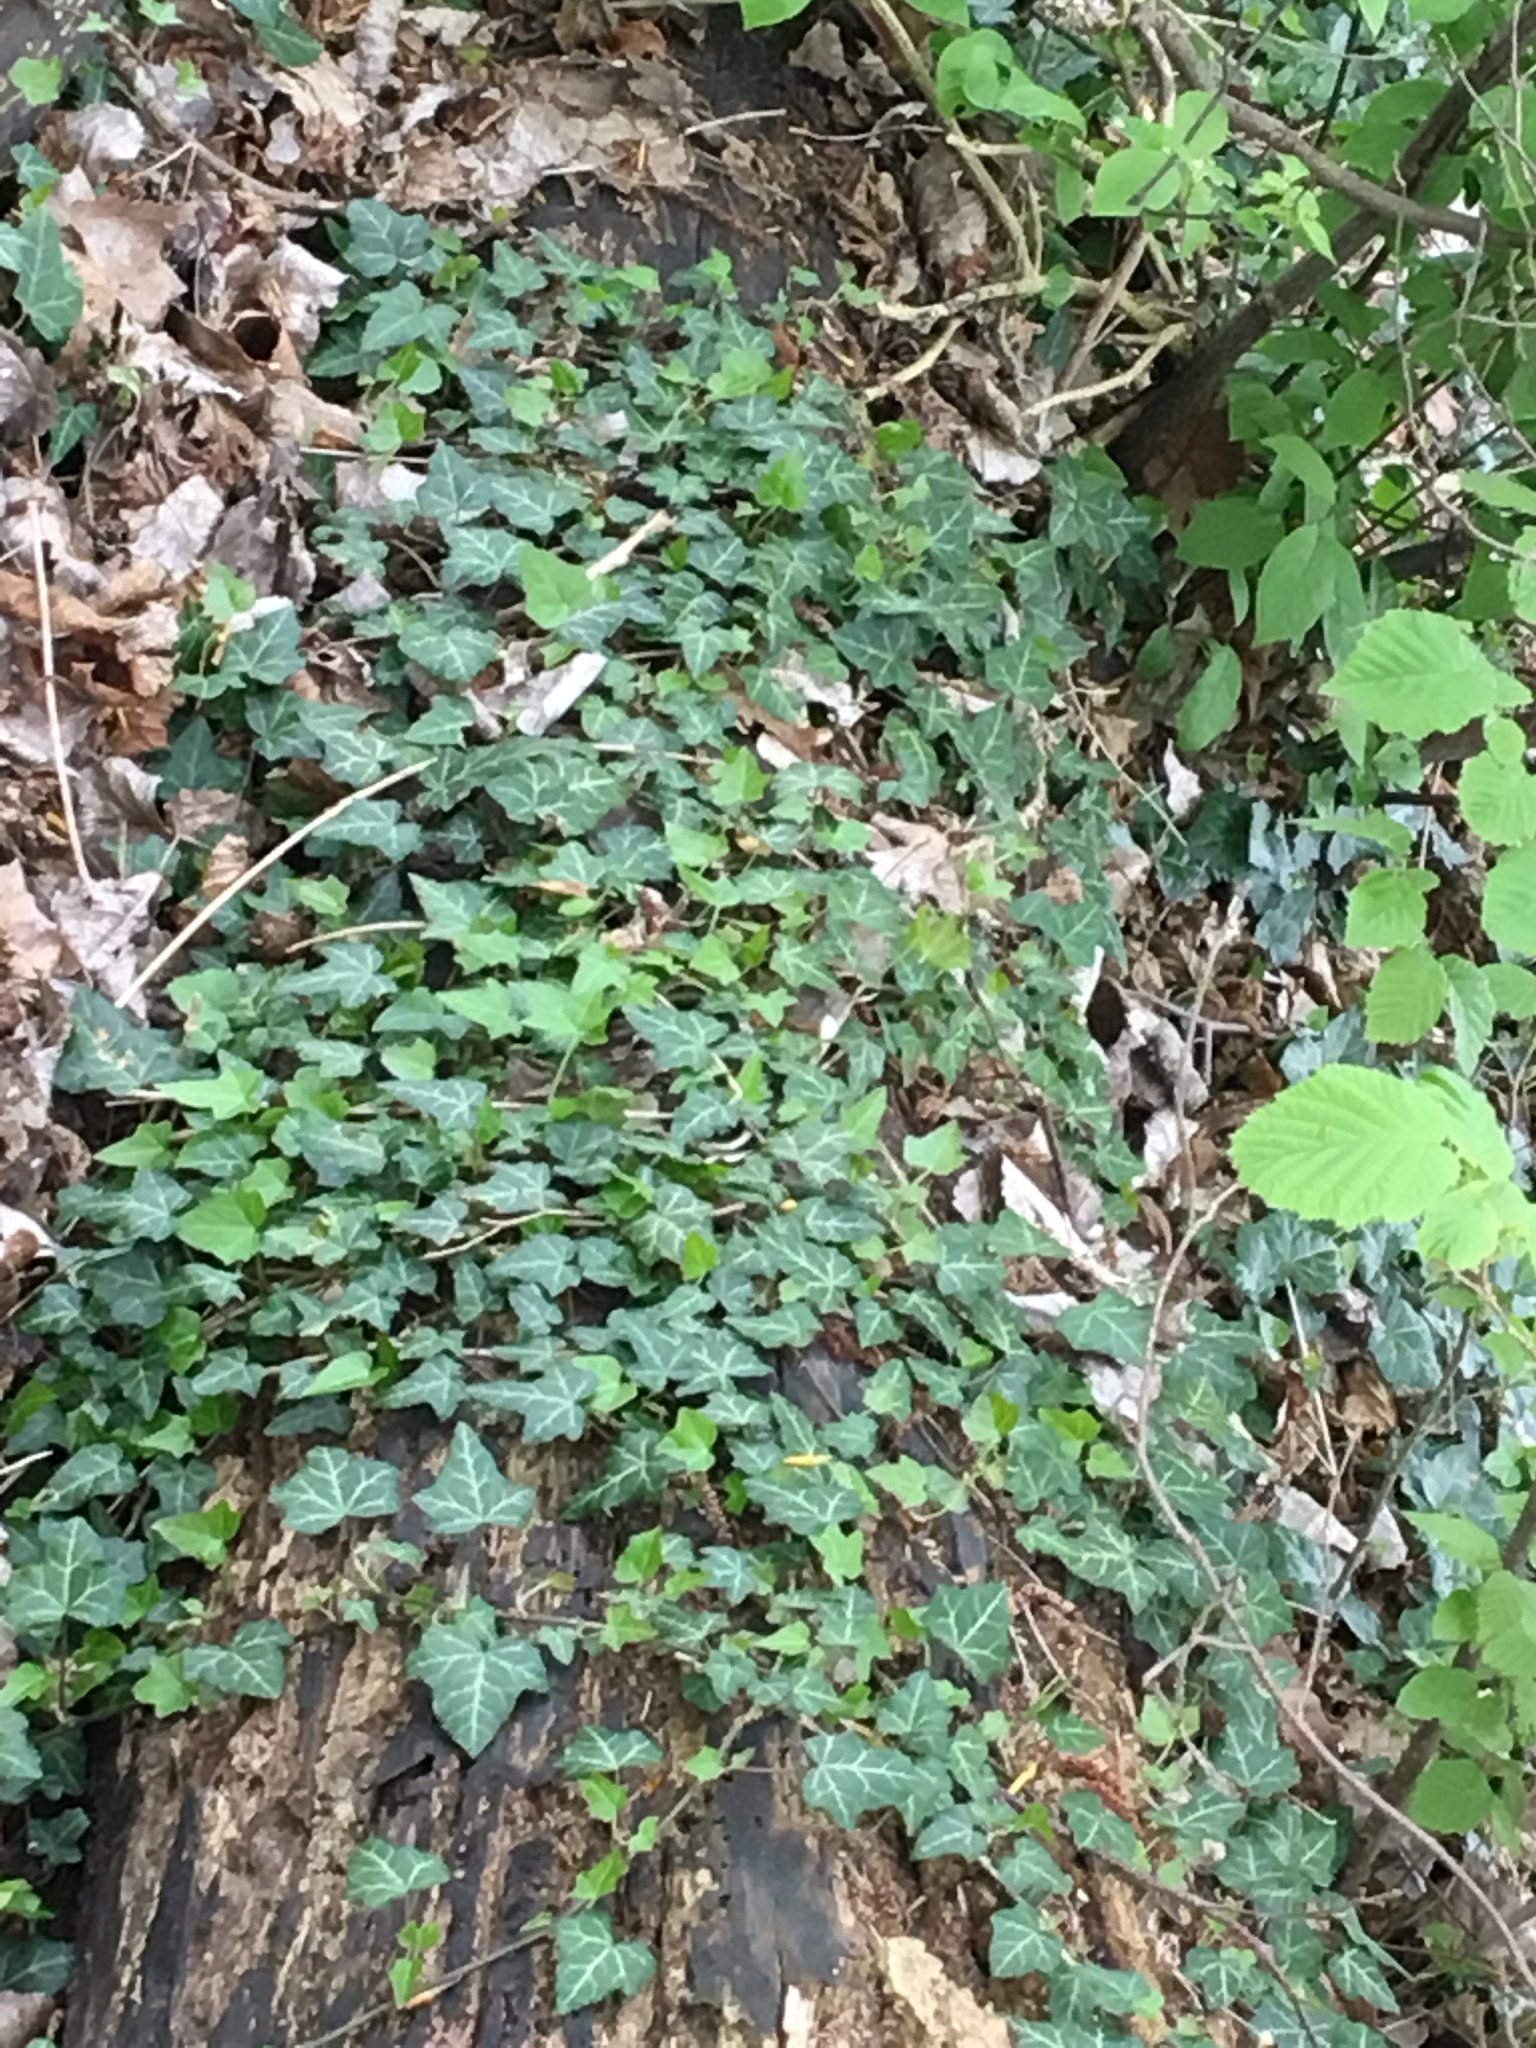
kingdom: Plantae
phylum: Tracheophyta
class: Magnoliopsida
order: Apiales
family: Araliaceae
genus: Hedera
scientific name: Hedera helix
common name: Ivy
